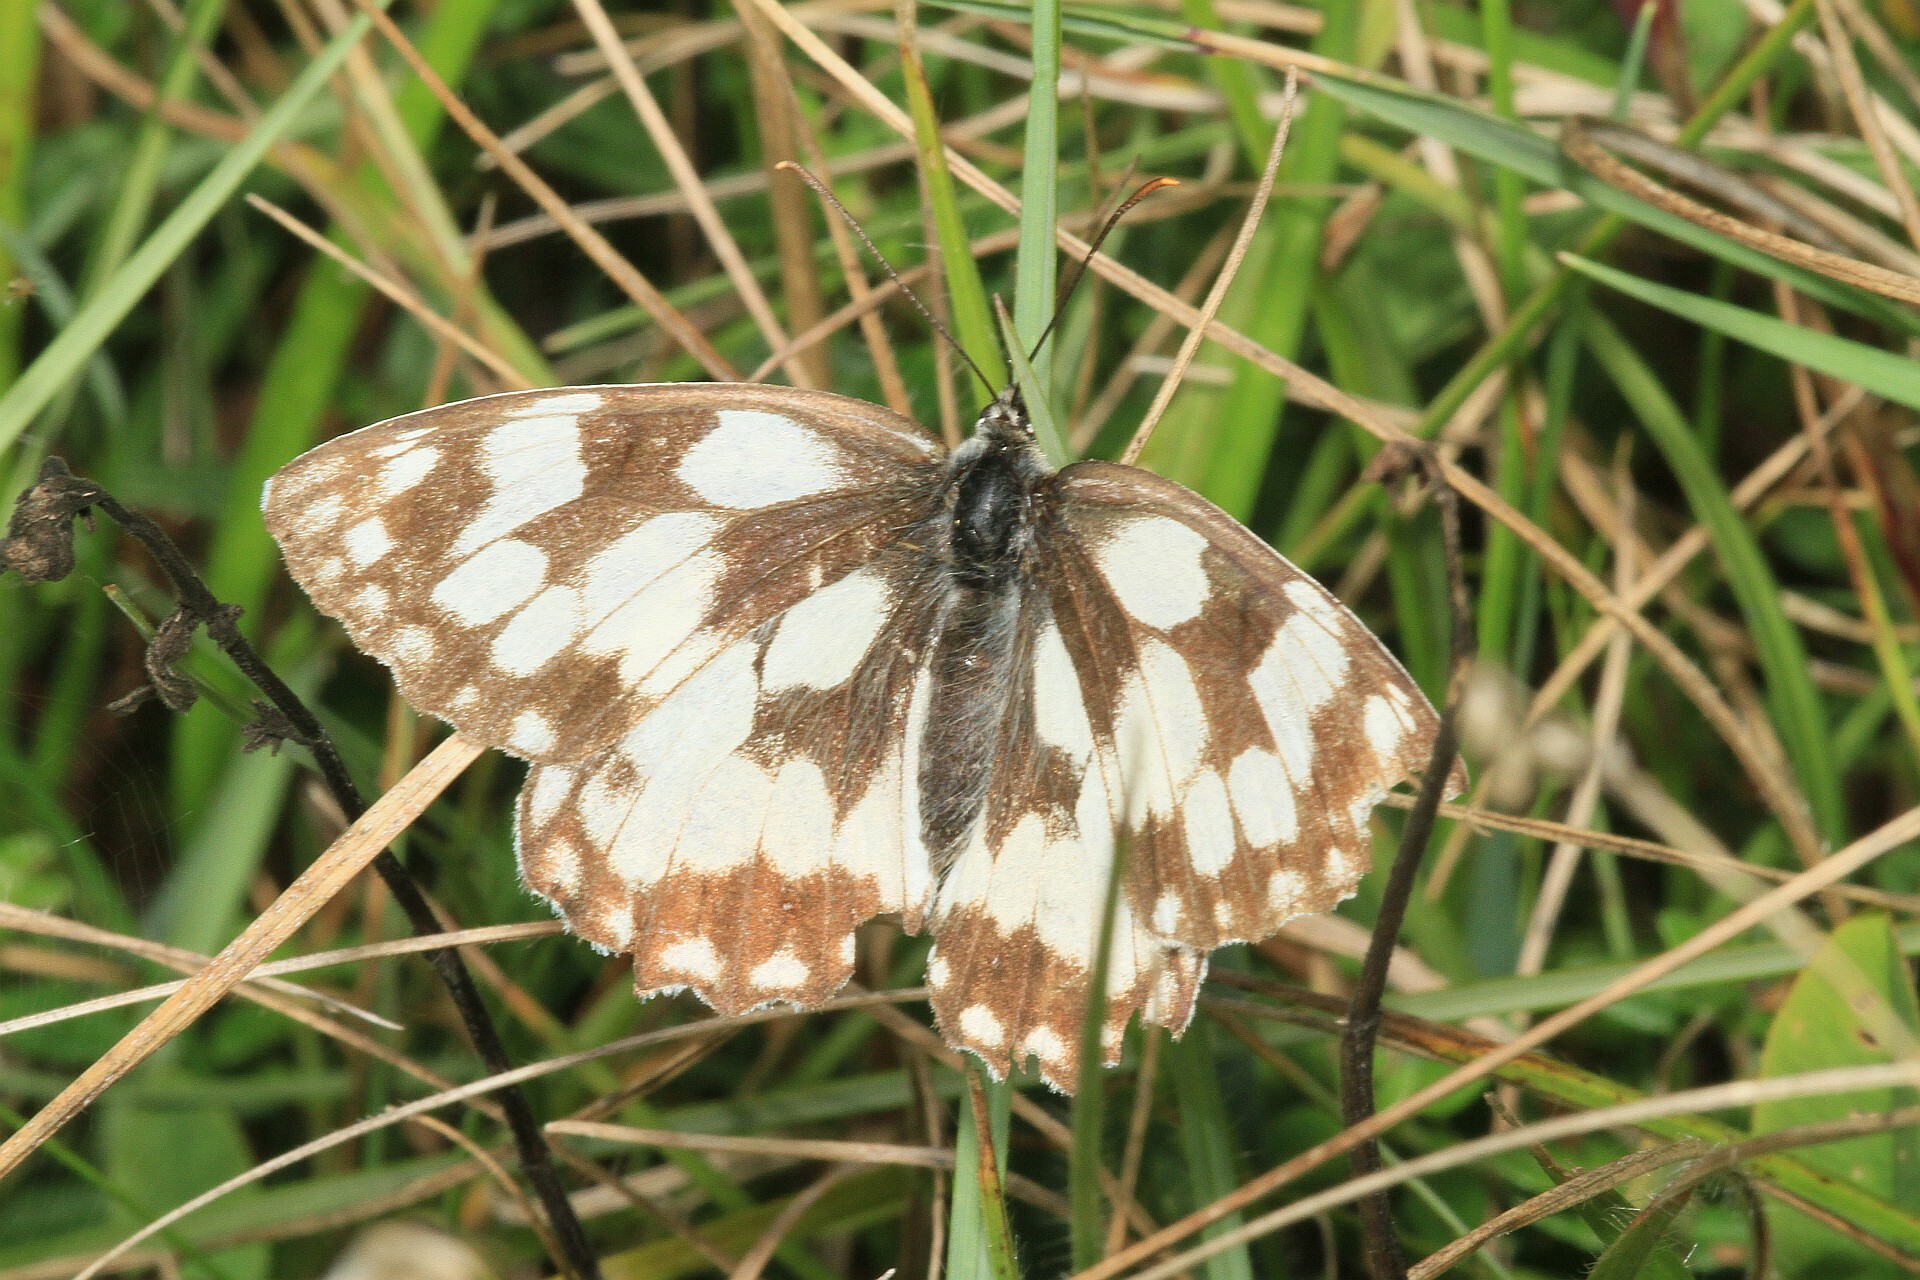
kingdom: Animalia
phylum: Arthropoda
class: Insecta
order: Lepidoptera
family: Nymphalidae
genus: Melanargia
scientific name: Melanargia galathea
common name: Marbled white
